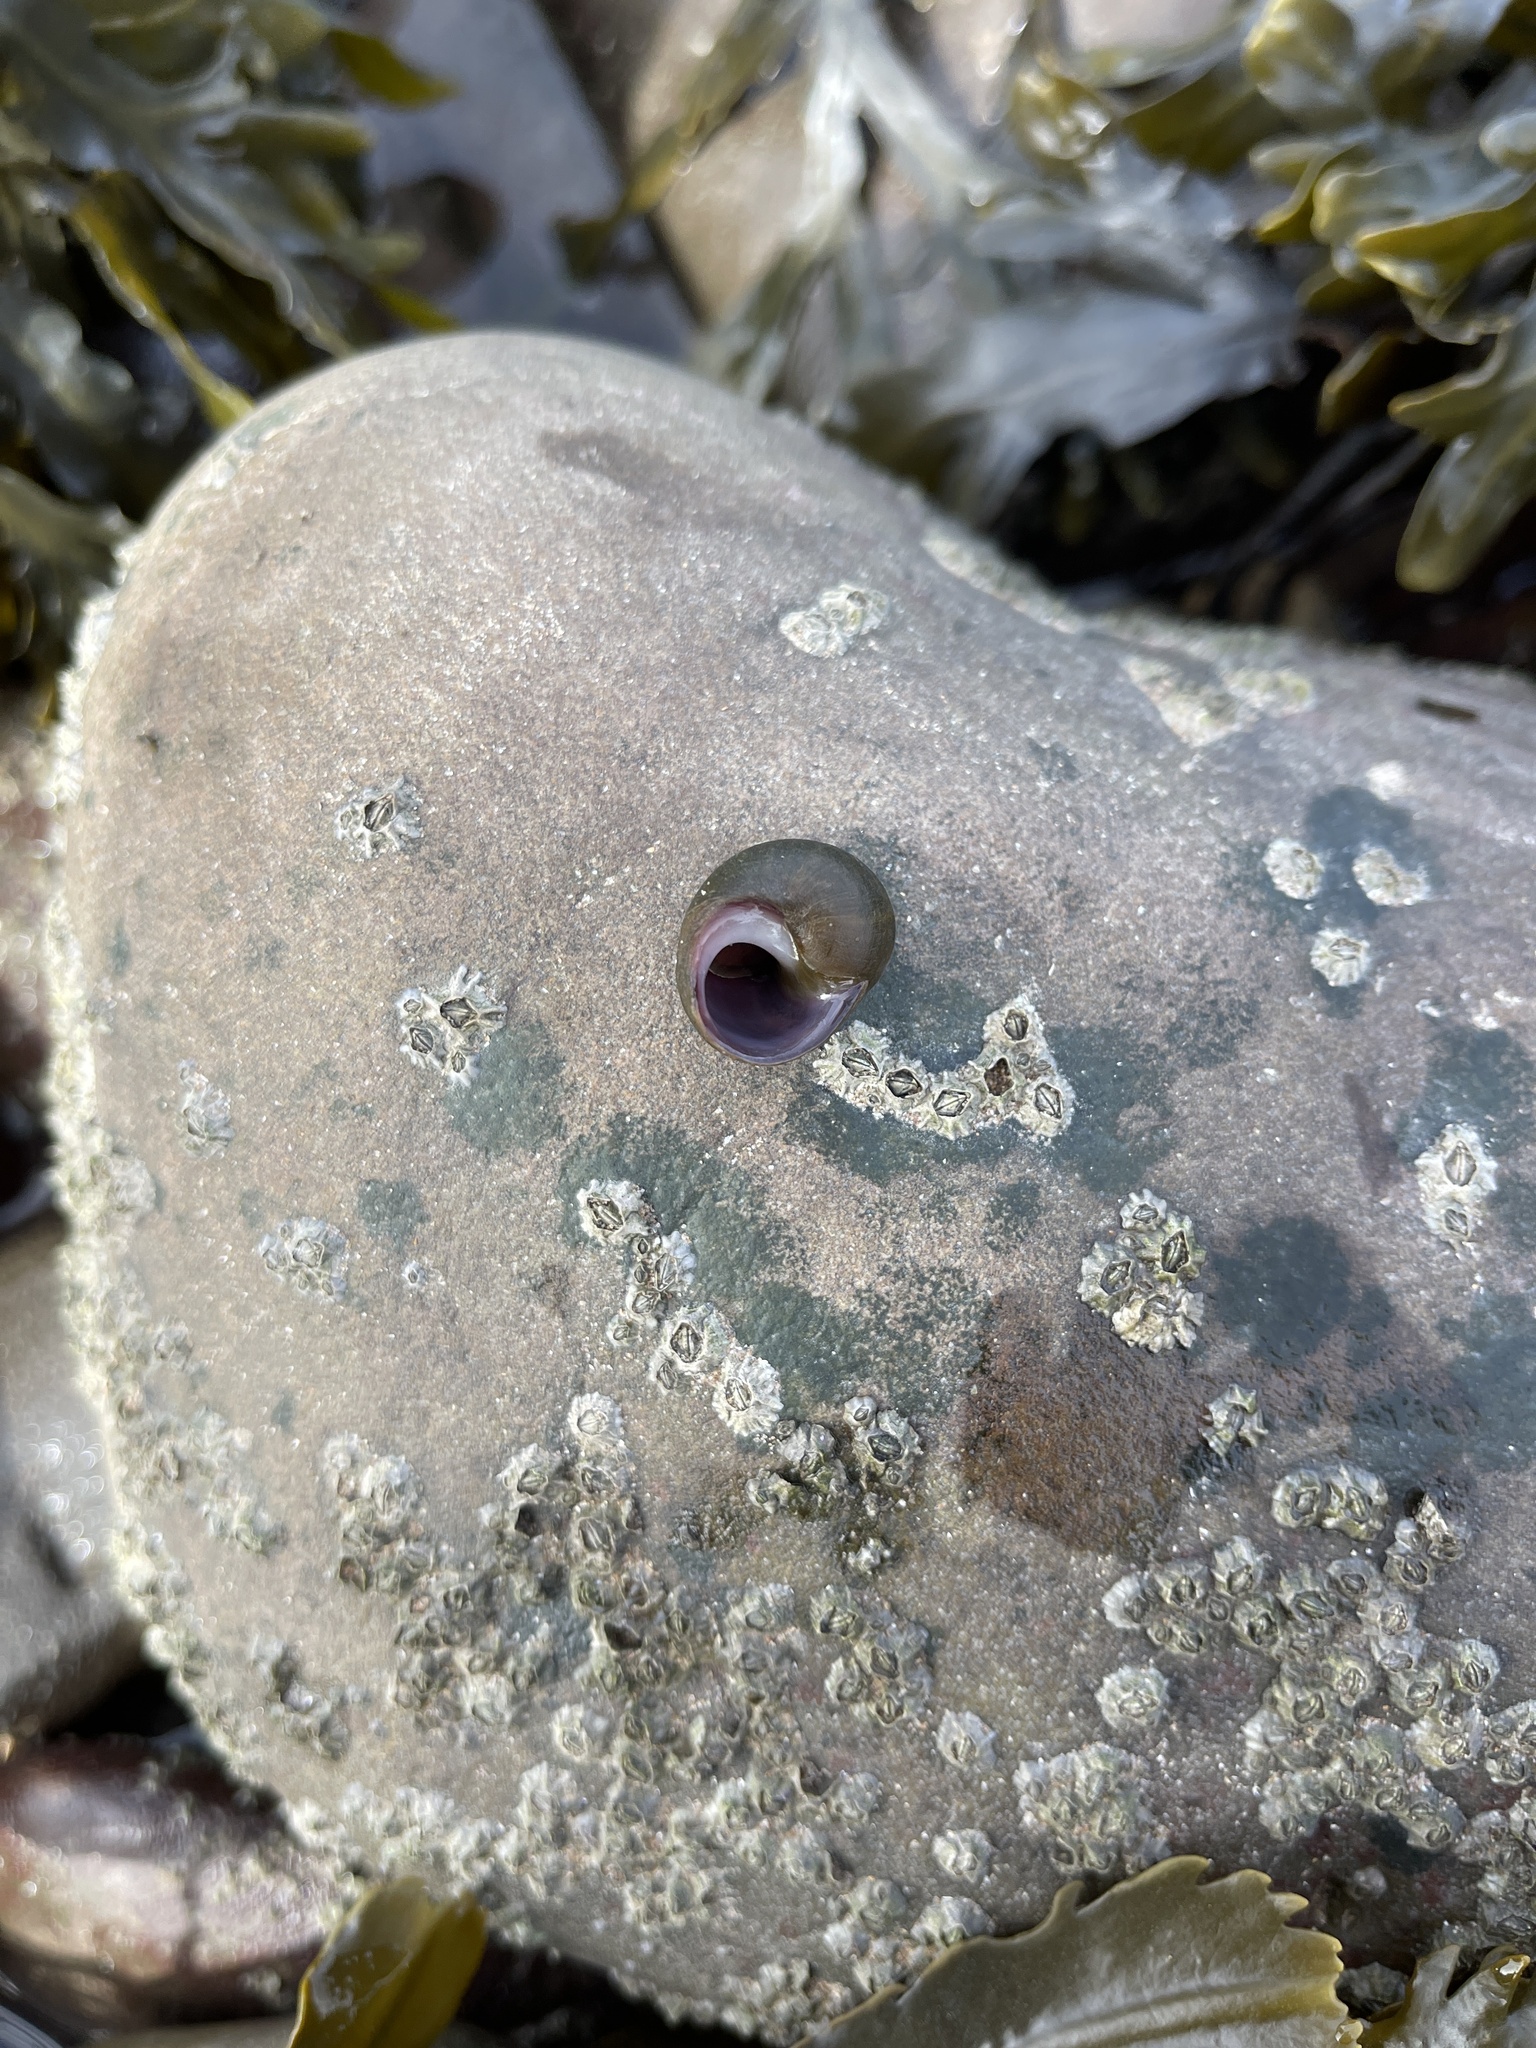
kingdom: Animalia
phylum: Mollusca
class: Gastropoda
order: Littorinimorpha
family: Littorinidae
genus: Littorina
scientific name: Littorina
